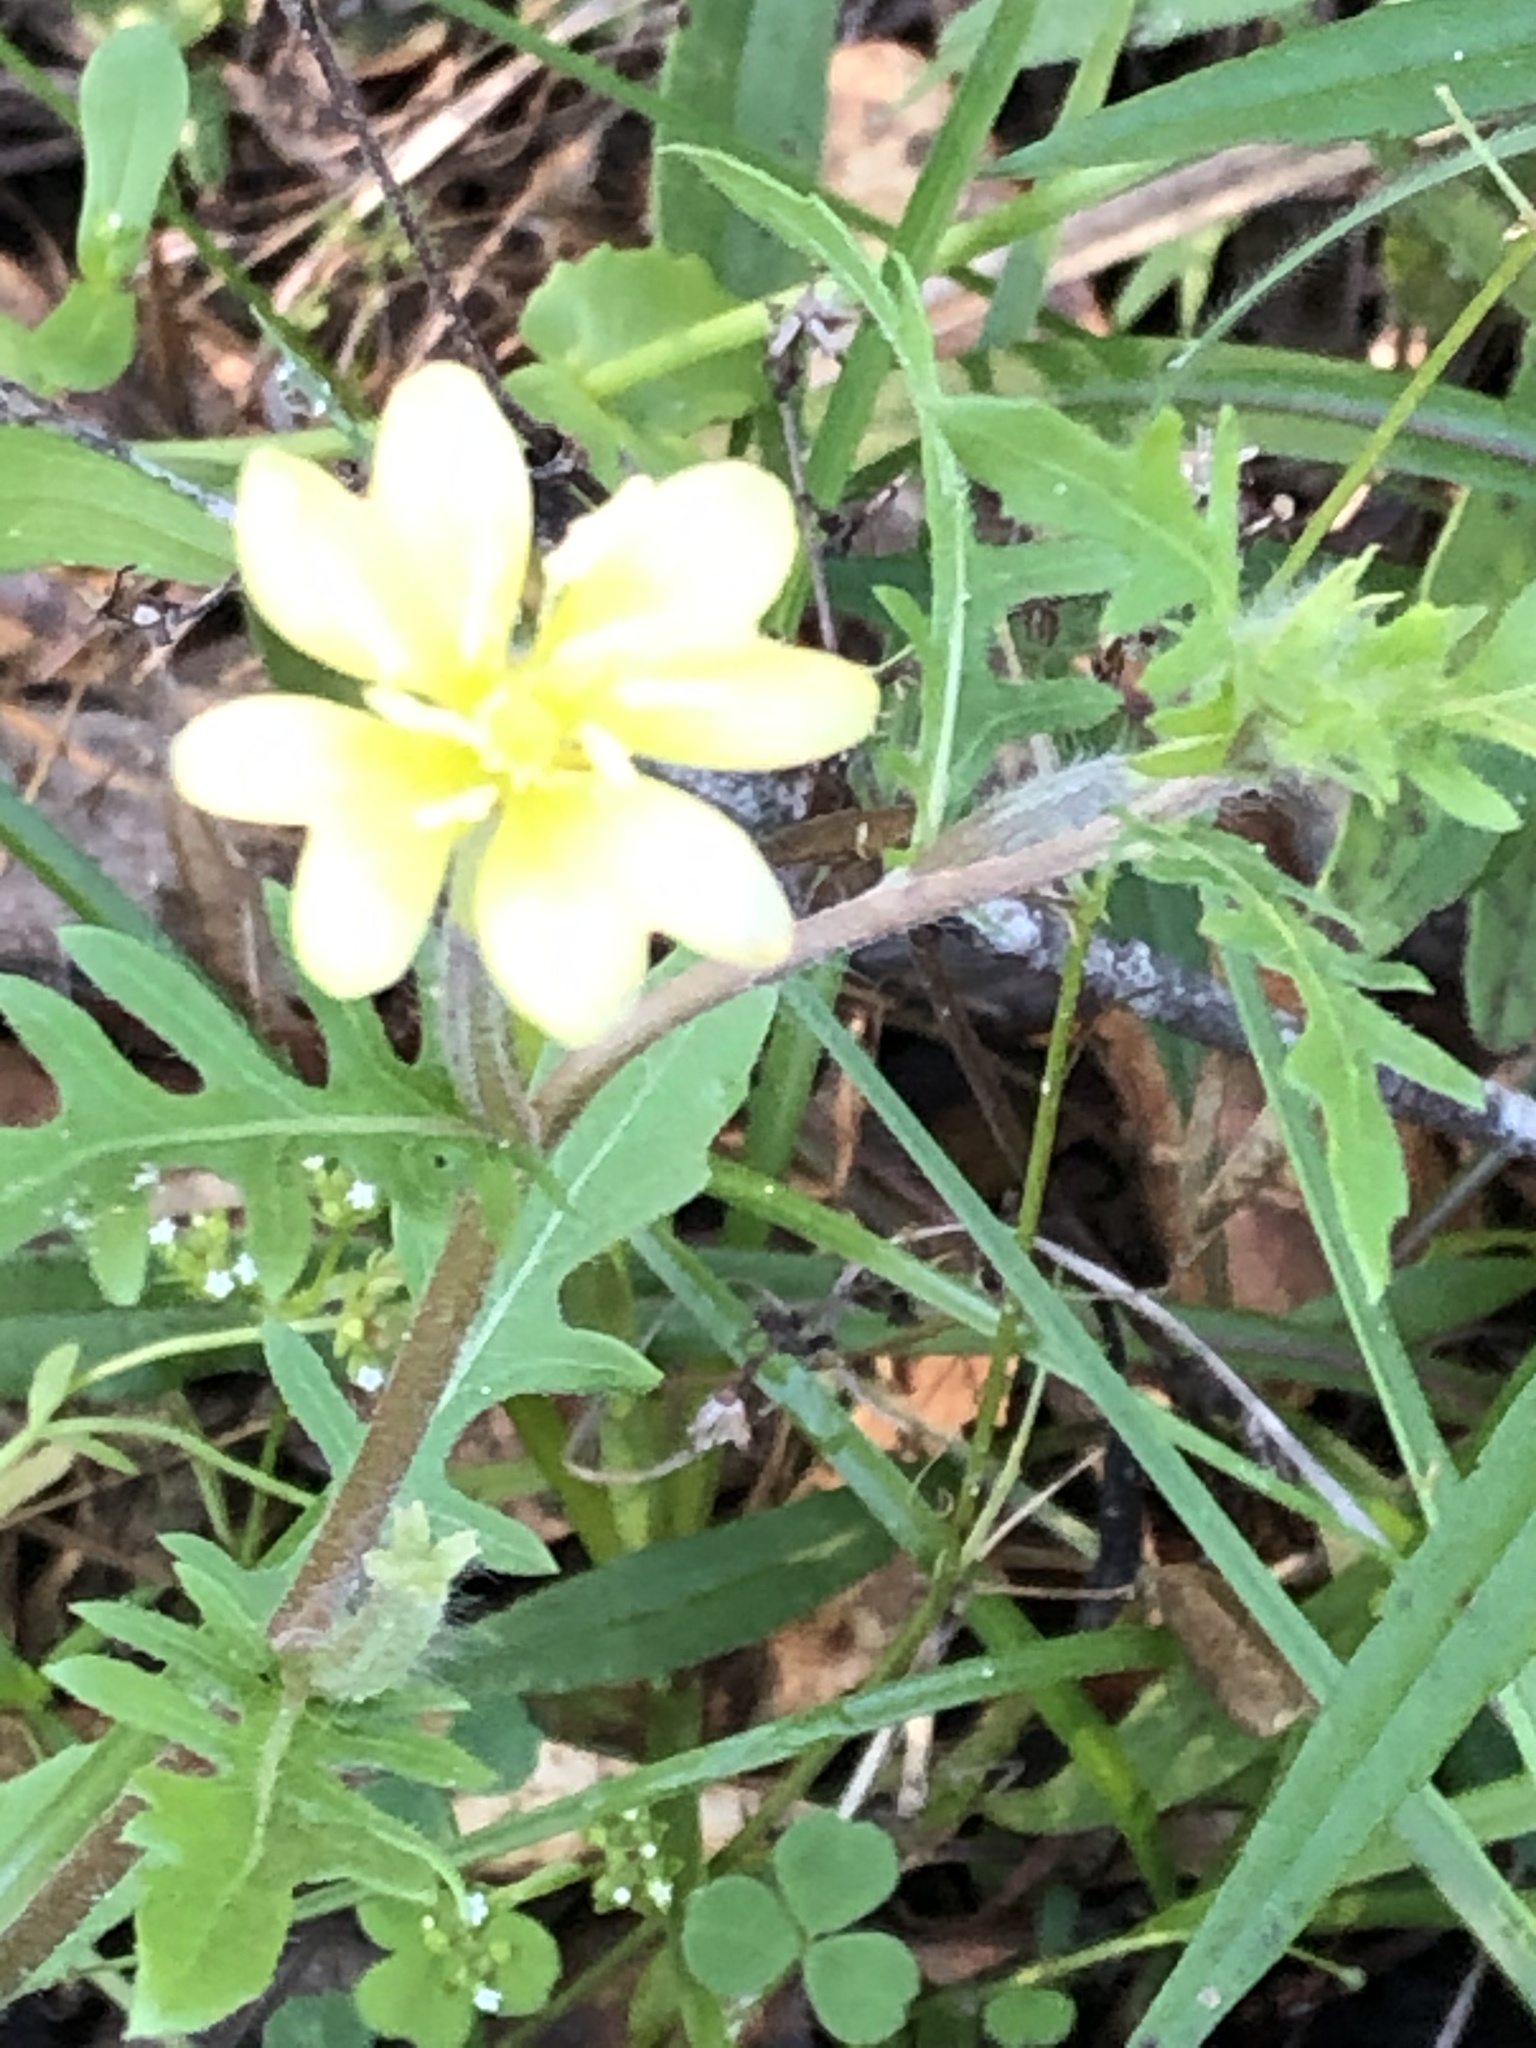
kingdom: Plantae
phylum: Tracheophyta
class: Magnoliopsida
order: Myrtales
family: Onagraceae
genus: Oenothera
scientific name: Oenothera laciniata
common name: Cut-leaved evening-primrose
